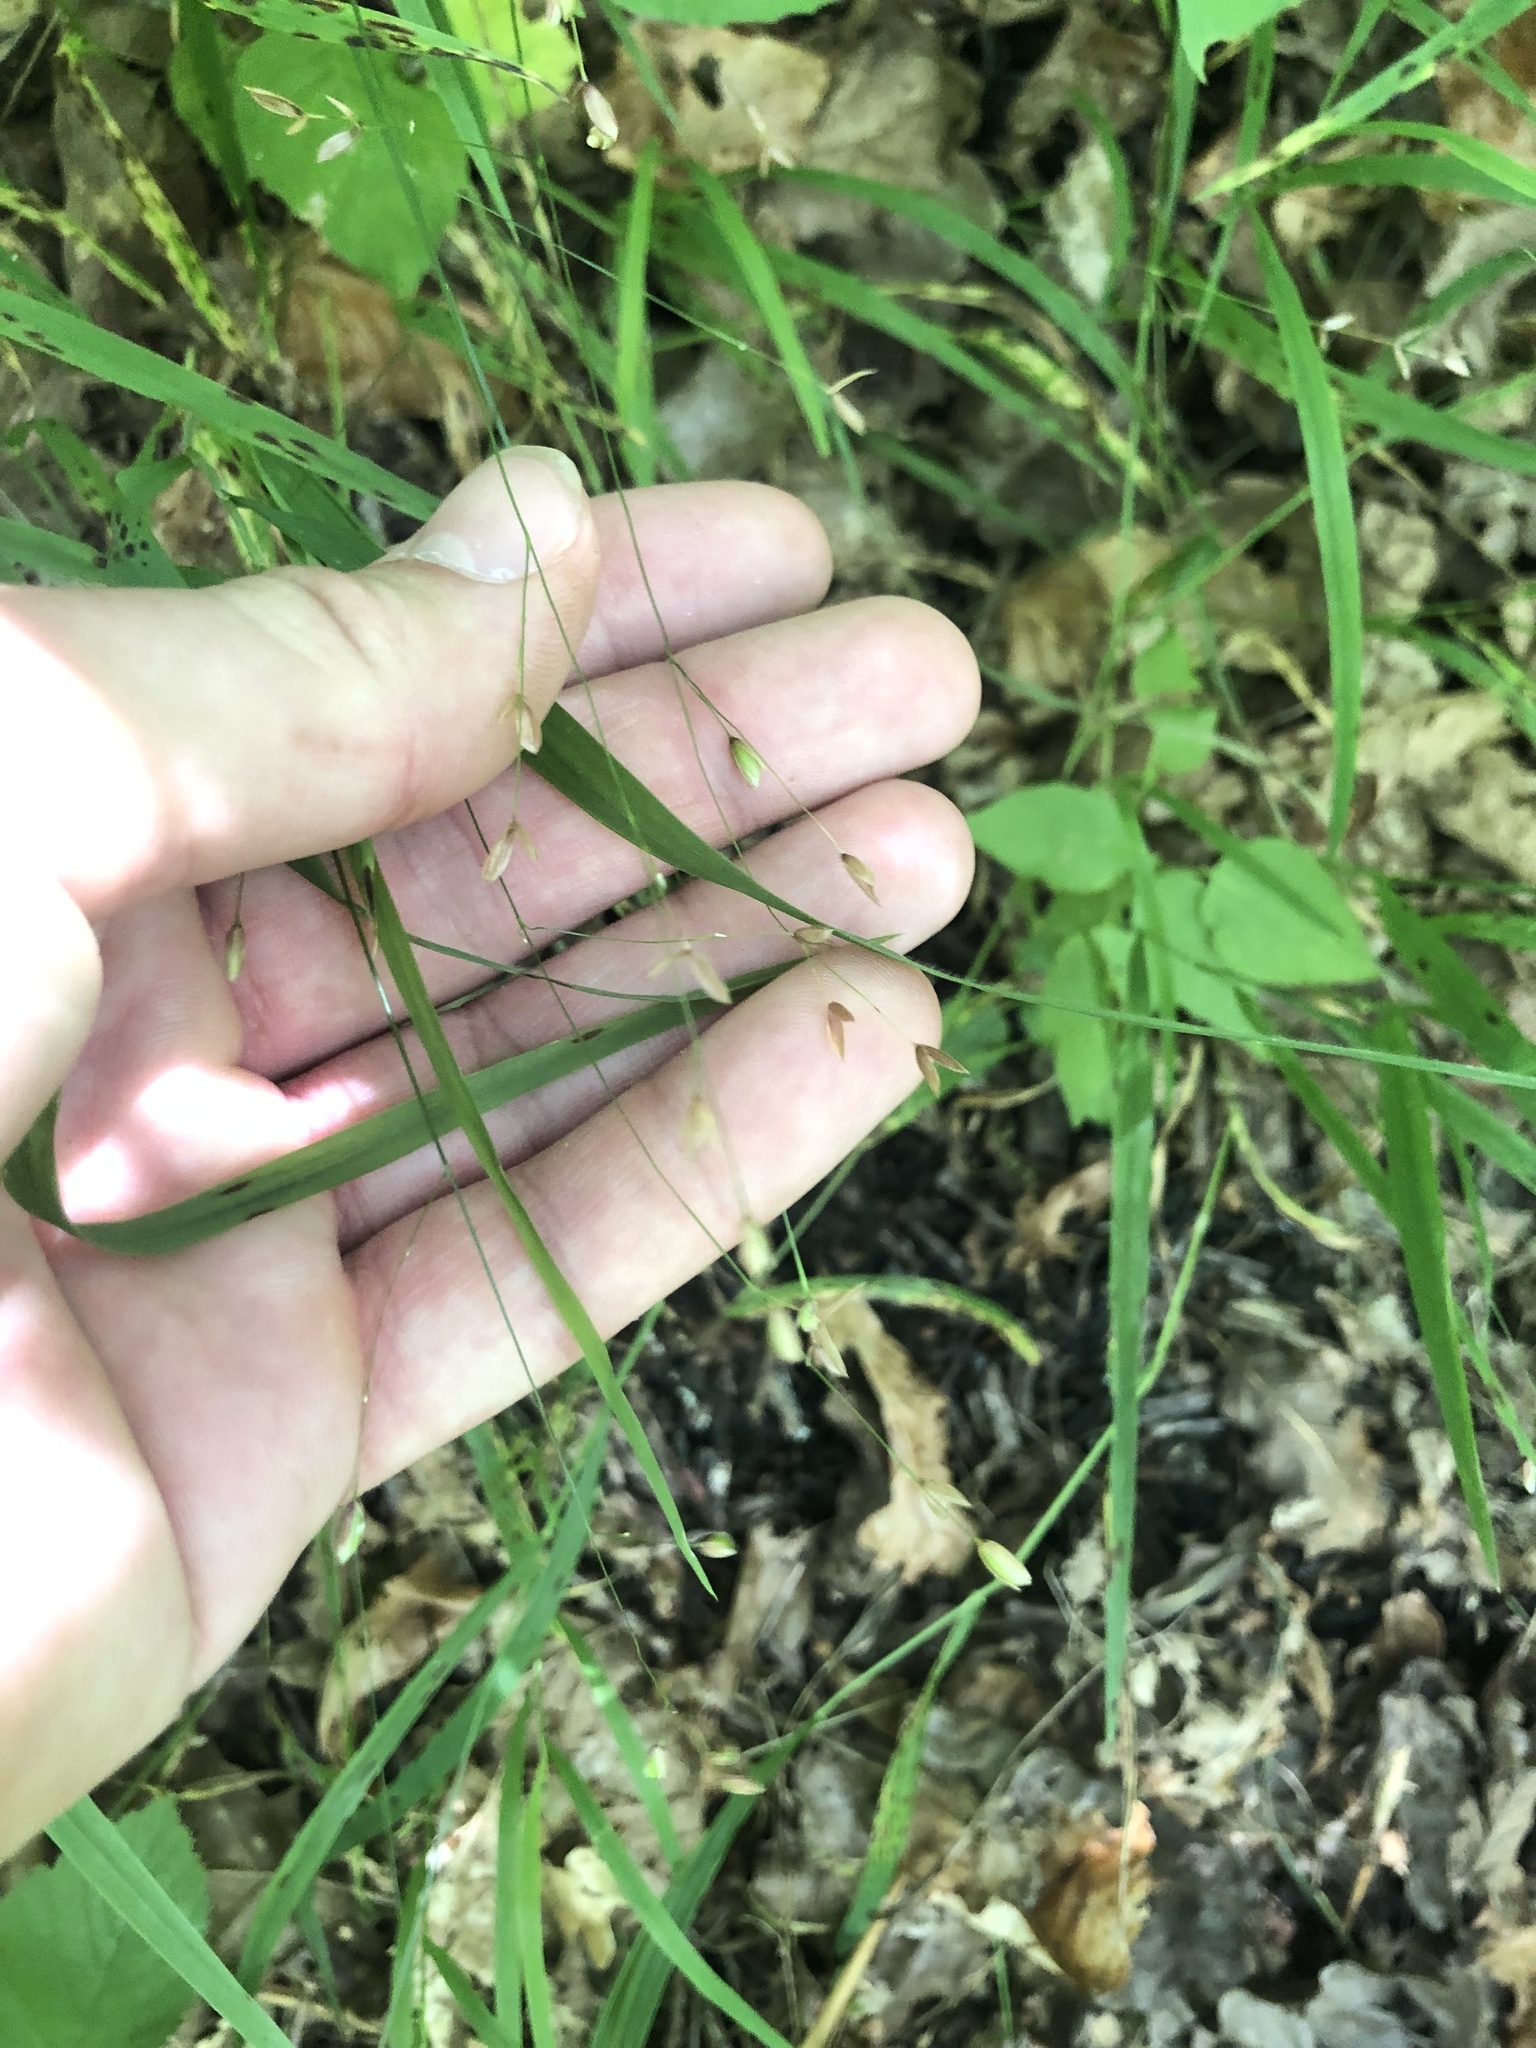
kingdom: Plantae
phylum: Tracheophyta
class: Liliopsida
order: Poales
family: Poaceae
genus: Melica
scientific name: Melica uniflora
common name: Wood melick
